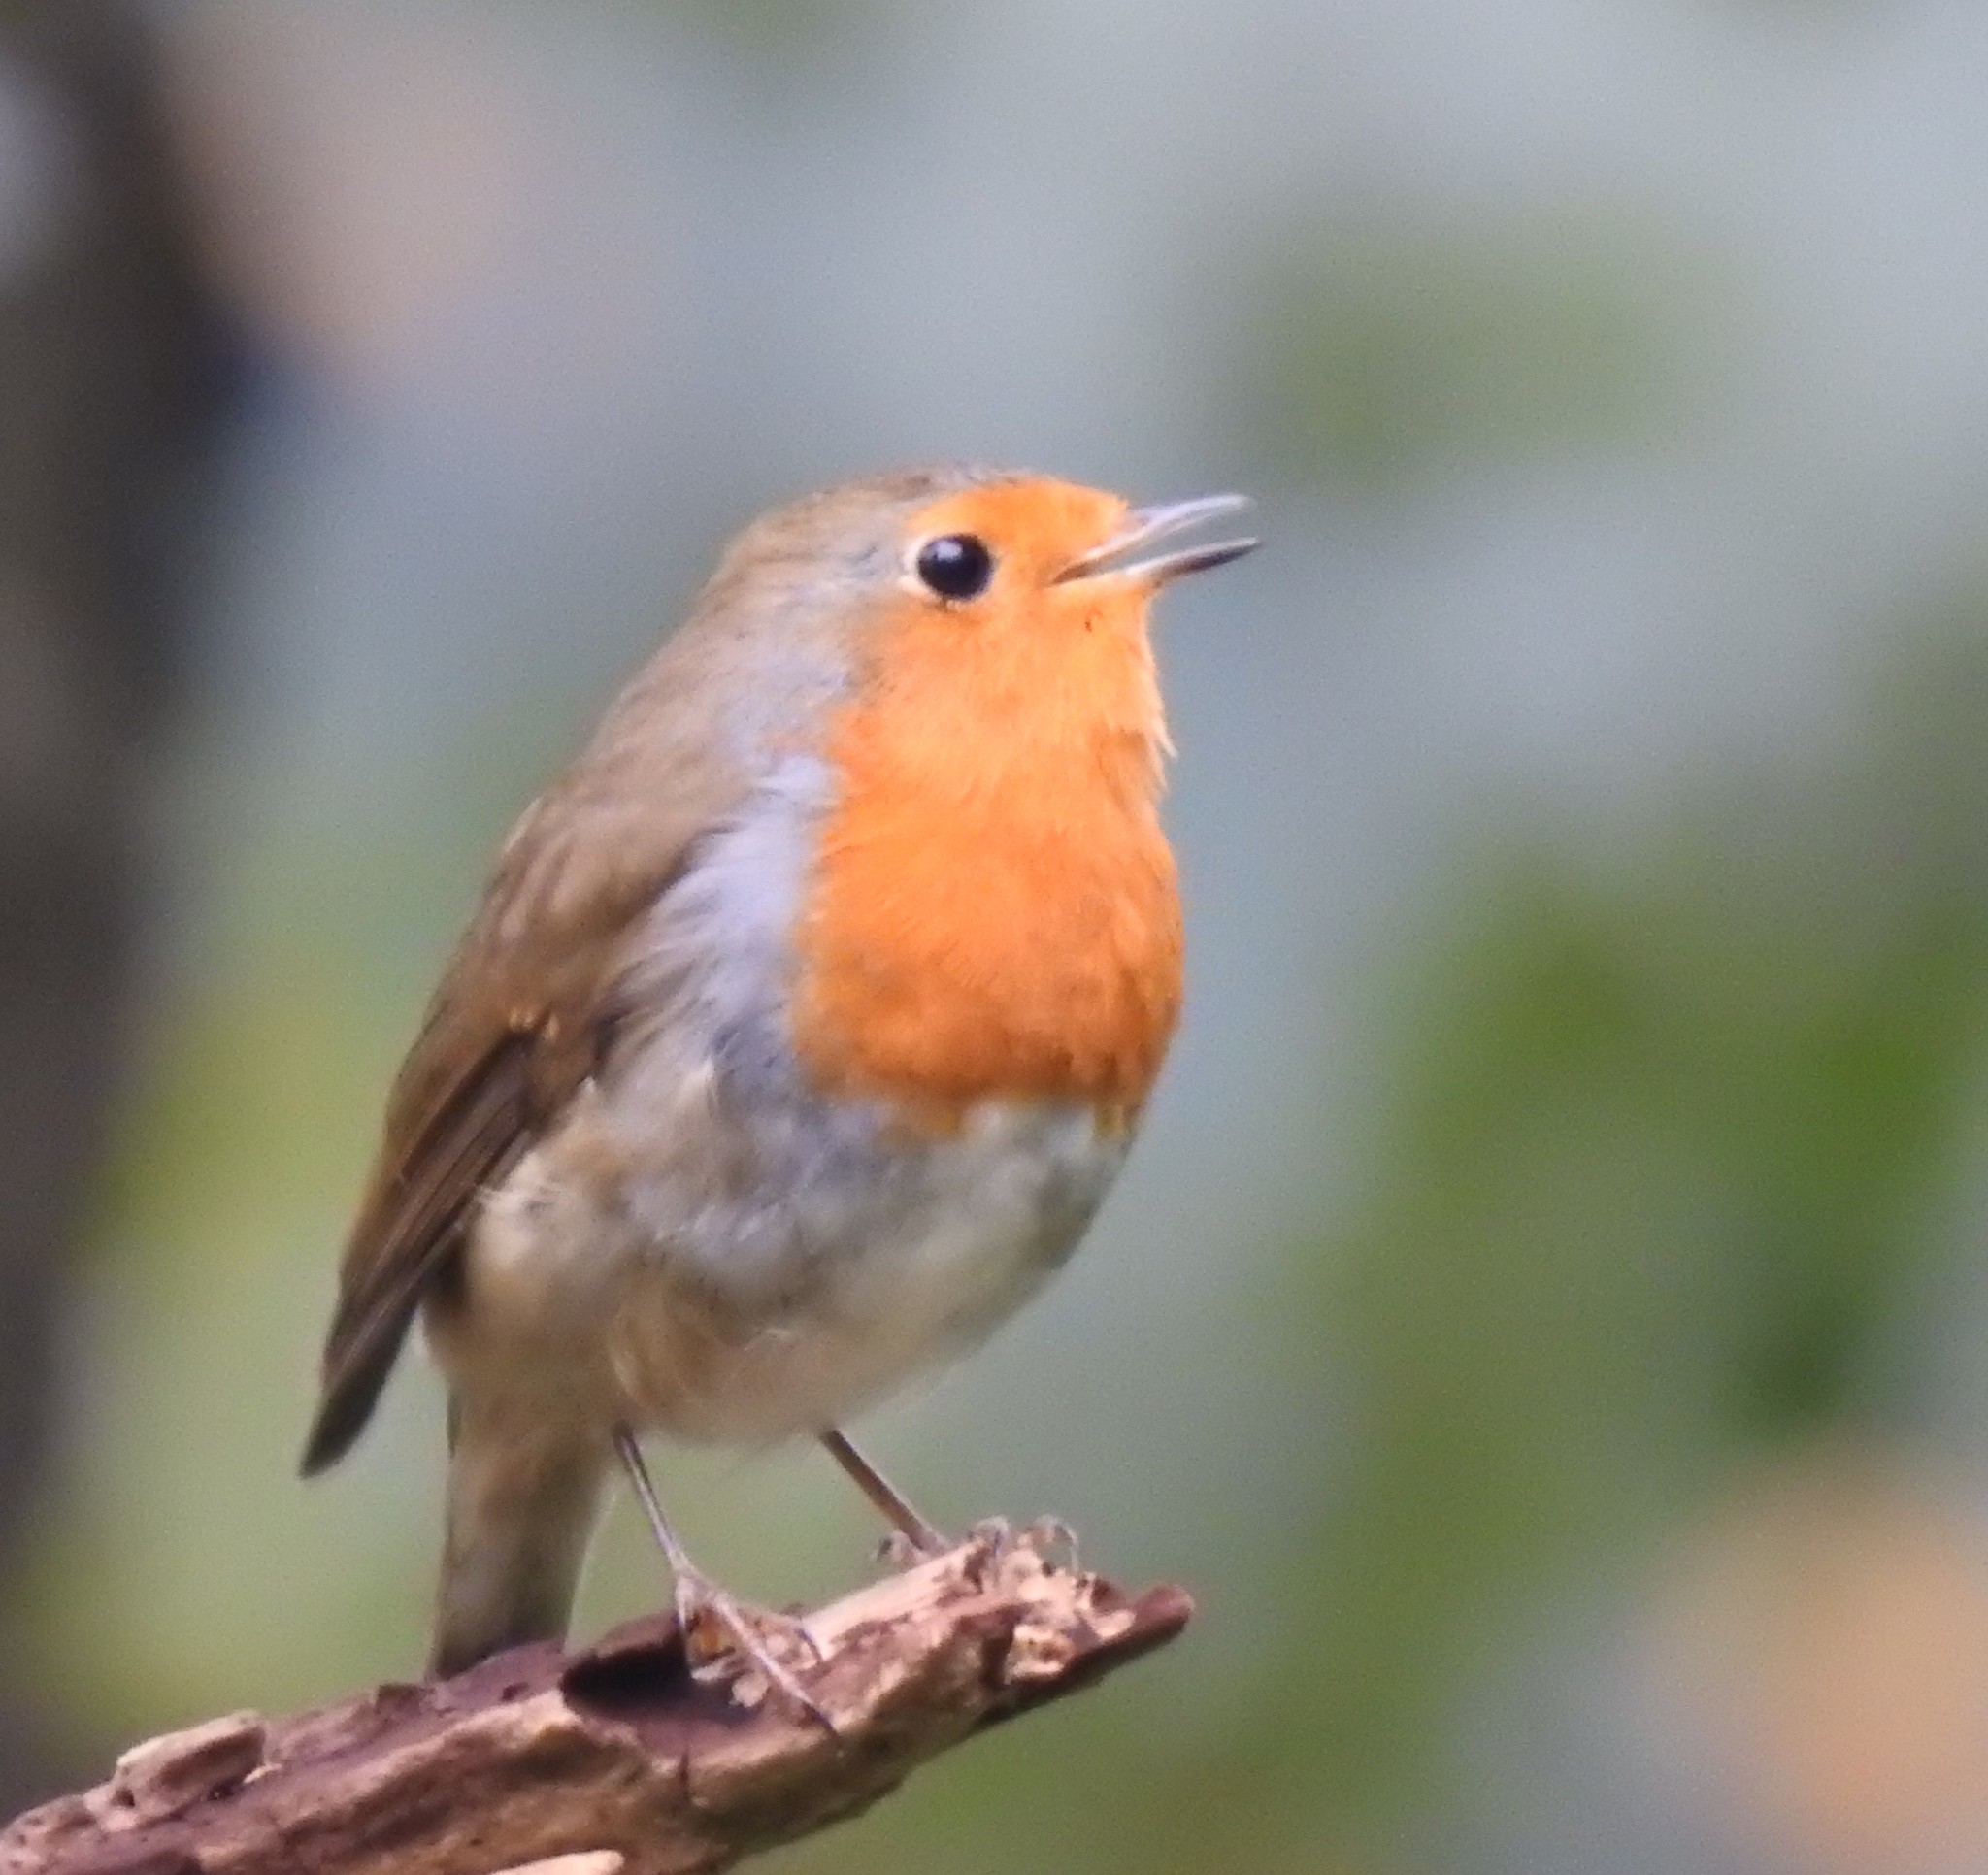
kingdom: Animalia
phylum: Chordata
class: Aves
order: Passeriformes
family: Muscicapidae
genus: Erithacus
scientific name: Erithacus rubecula
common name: European robin
